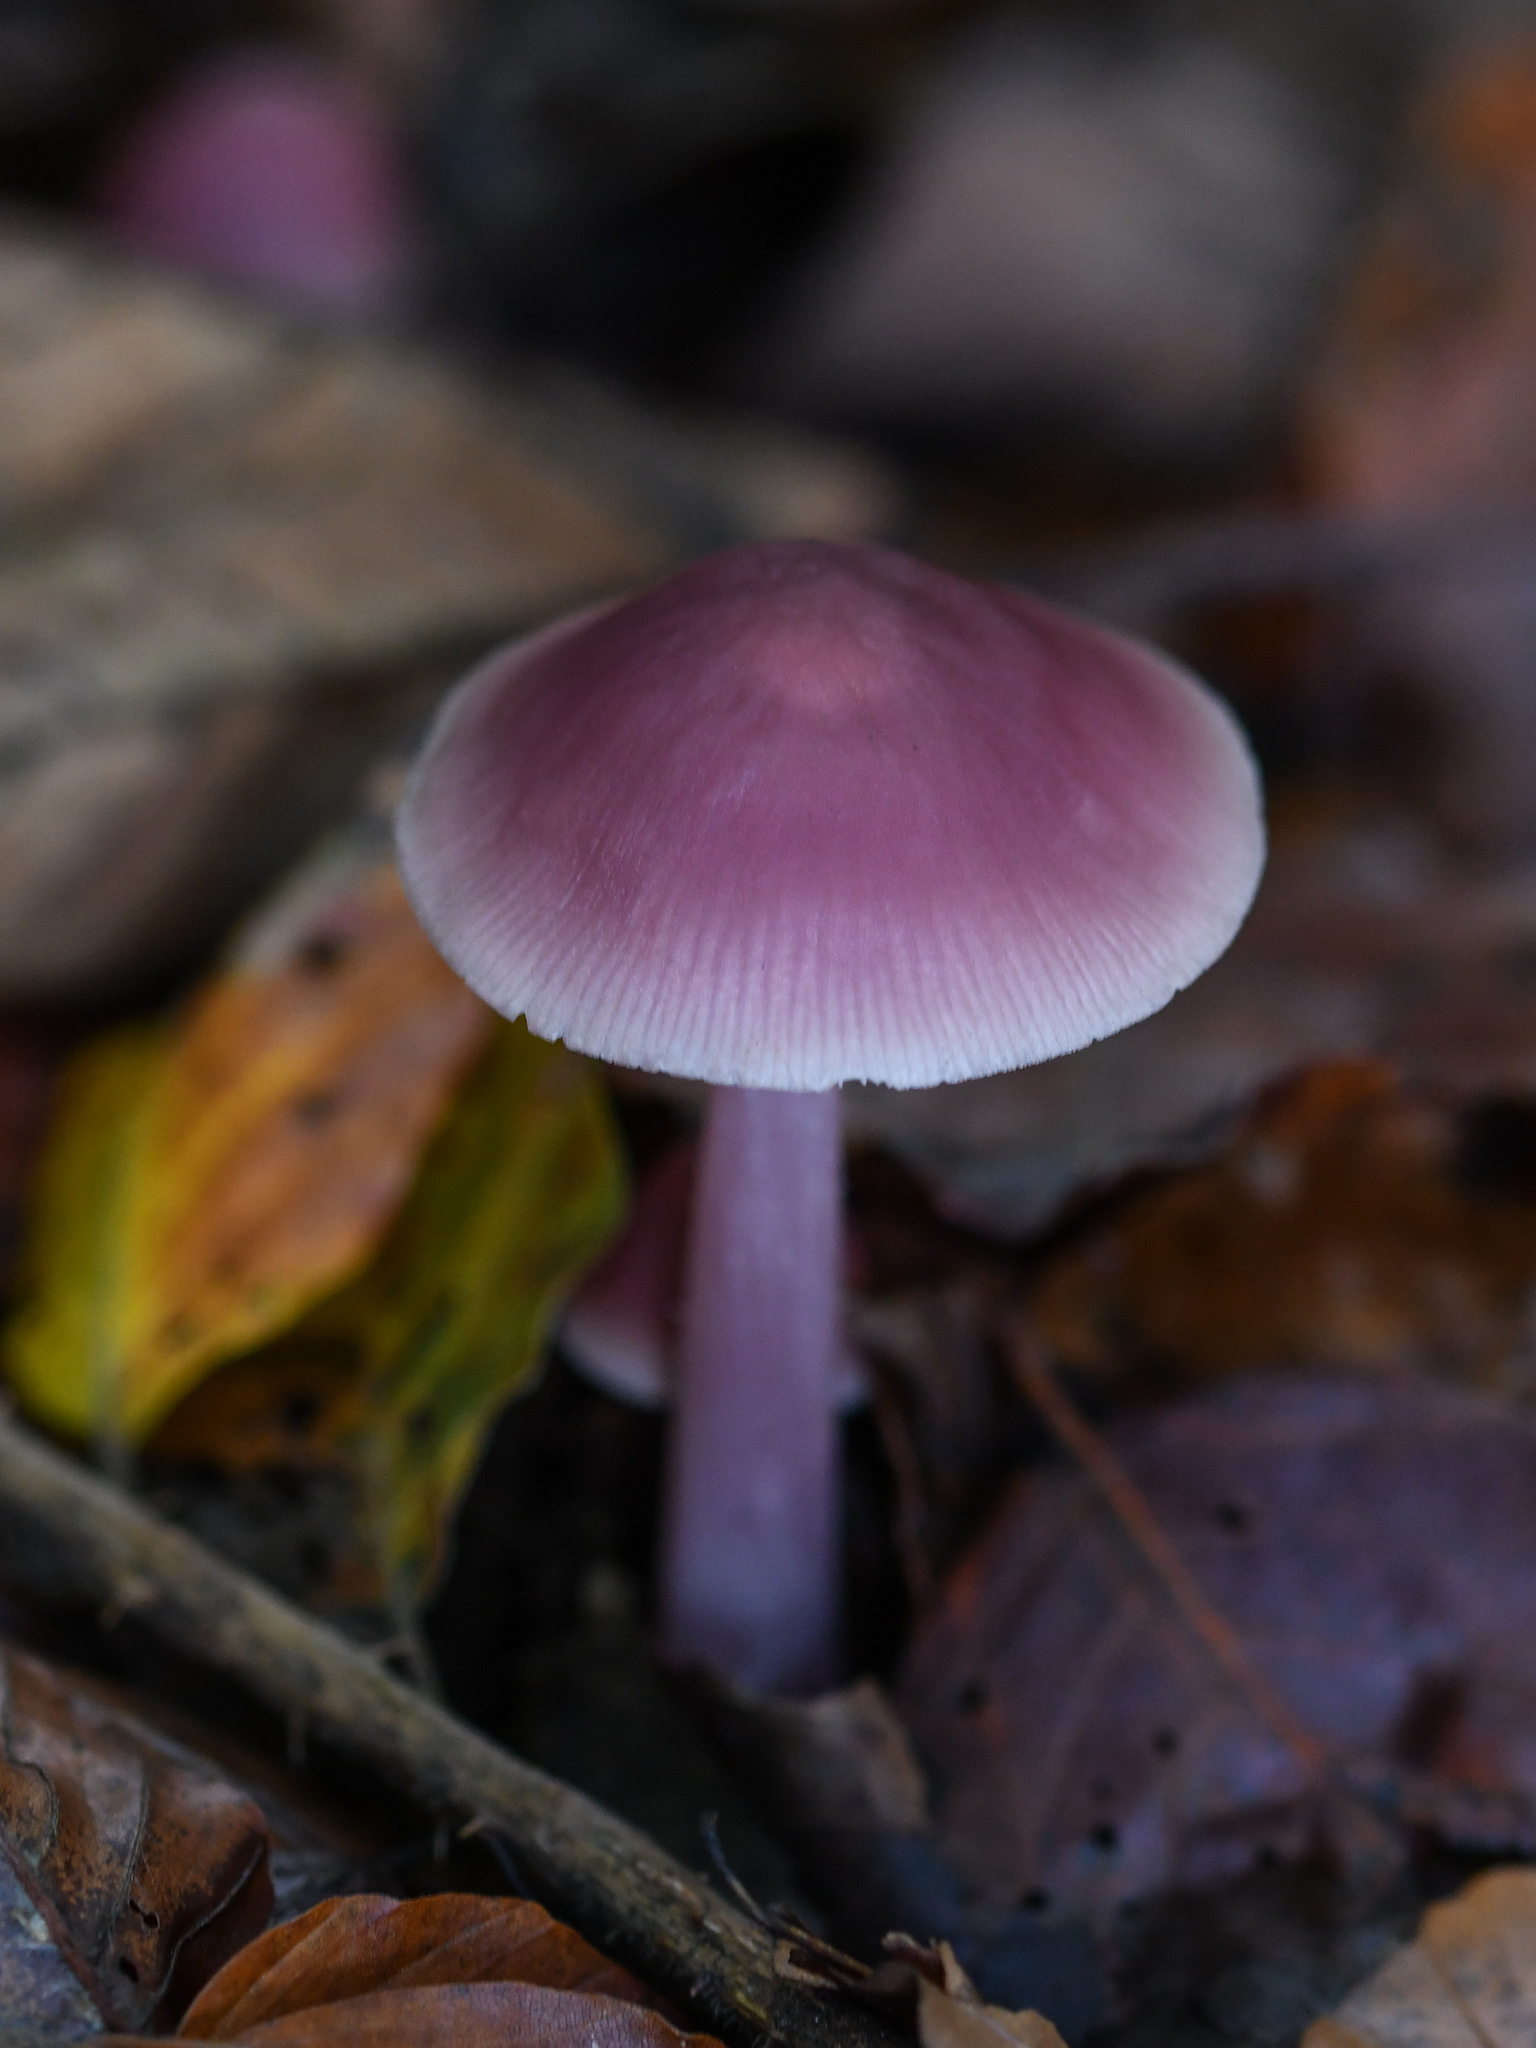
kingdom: Fungi
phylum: Basidiomycota
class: Agaricomycetes
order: Agaricales
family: Mycenaceae
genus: Mycena
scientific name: Mycena rosea
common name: Rosy bonnet
